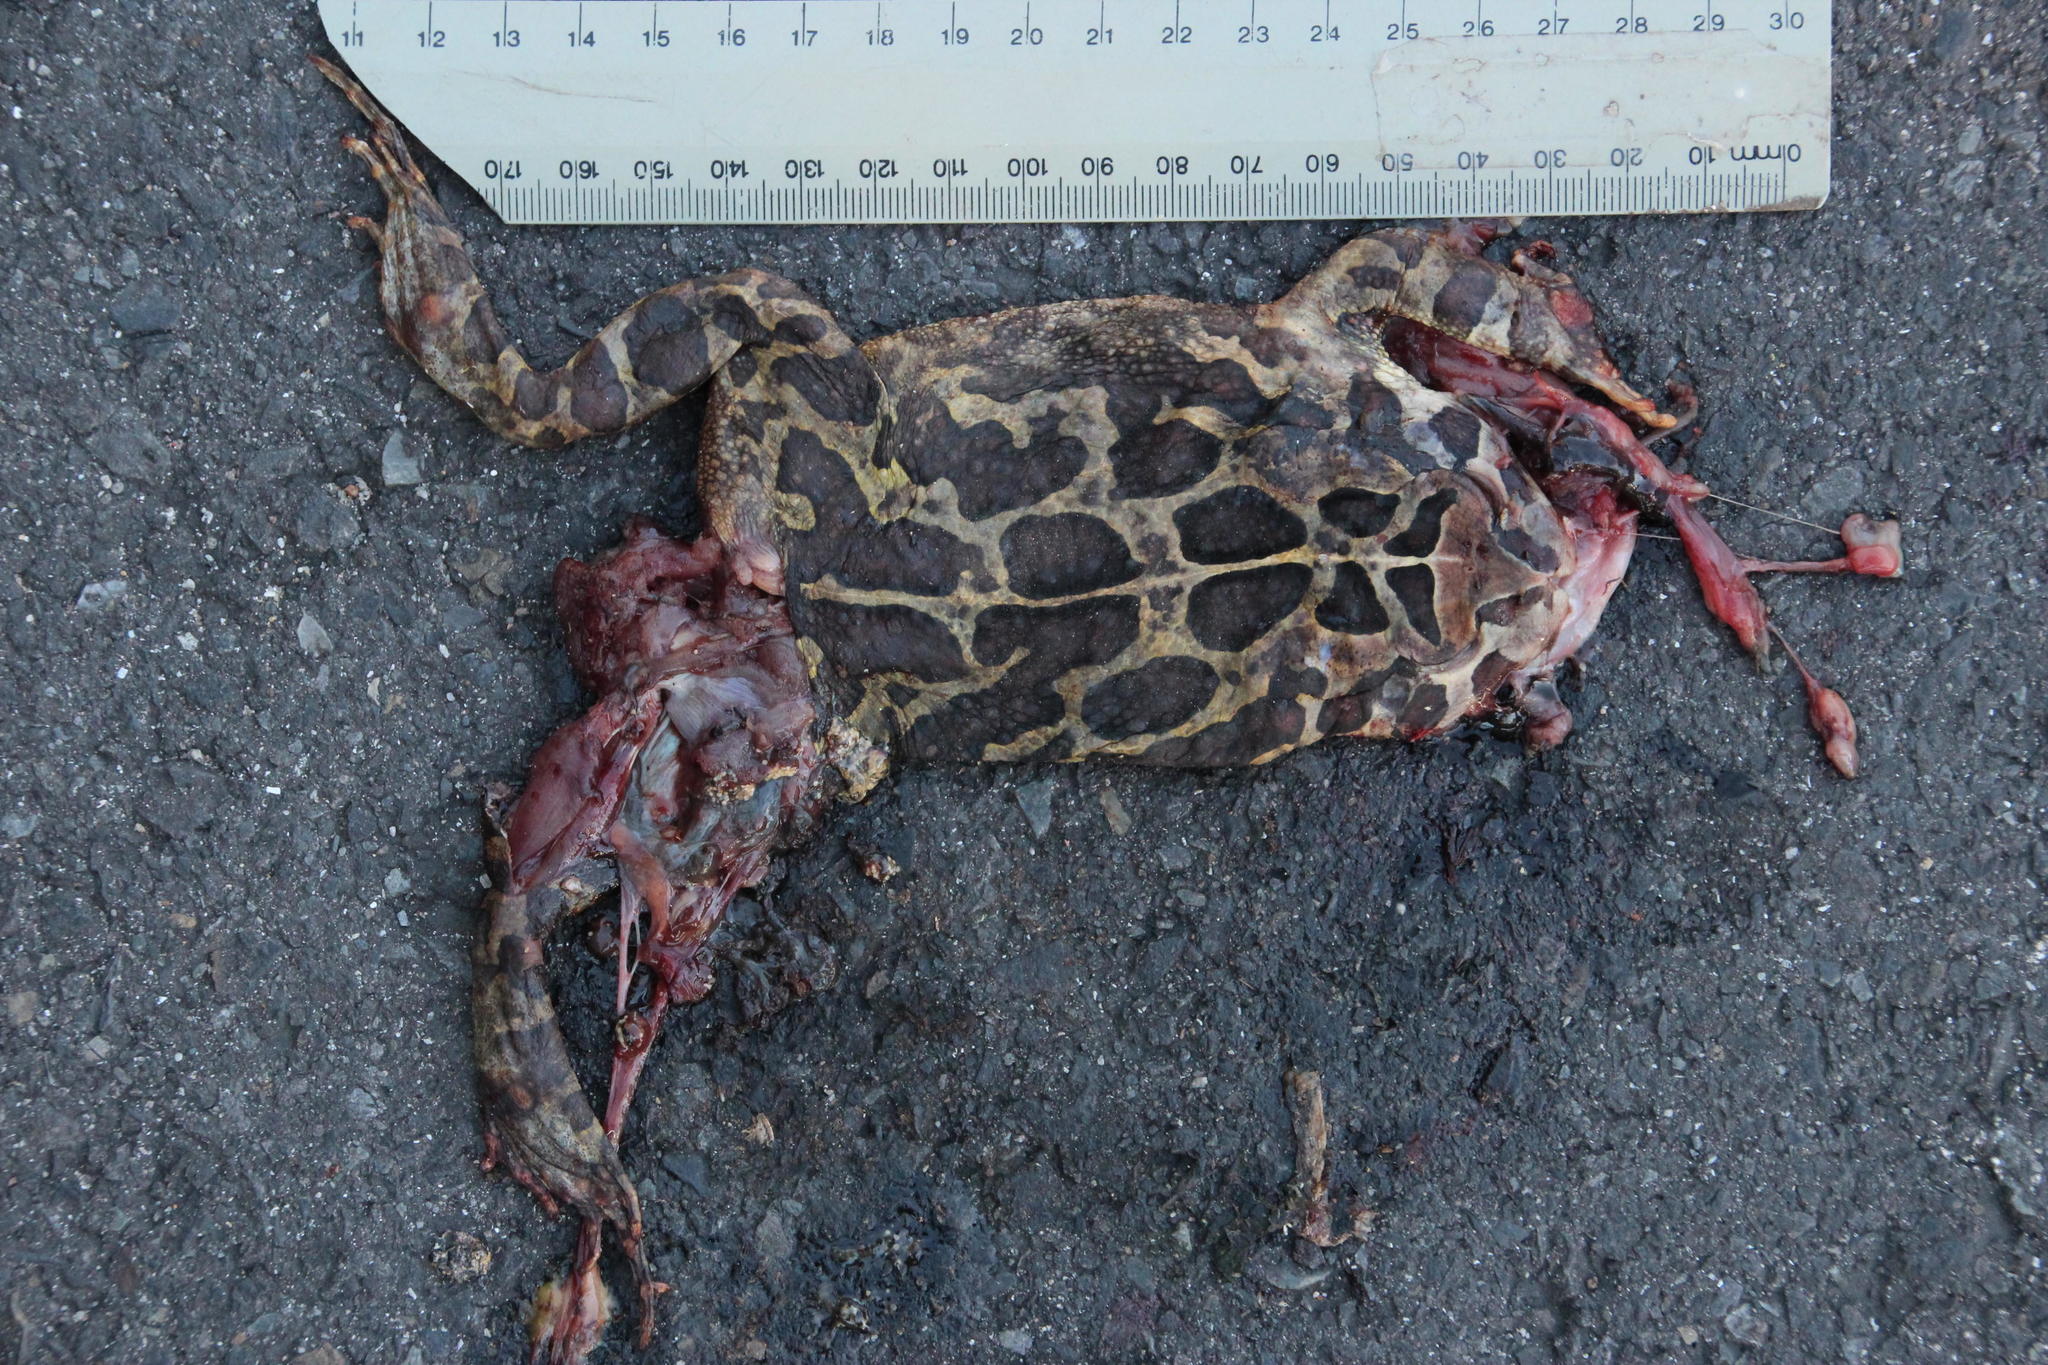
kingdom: Animalia
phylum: Chordata
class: Amphibia
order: Anura
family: Bufonidae
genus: Sclerophrys
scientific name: Sclerophrys pantherina
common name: Panther toad
